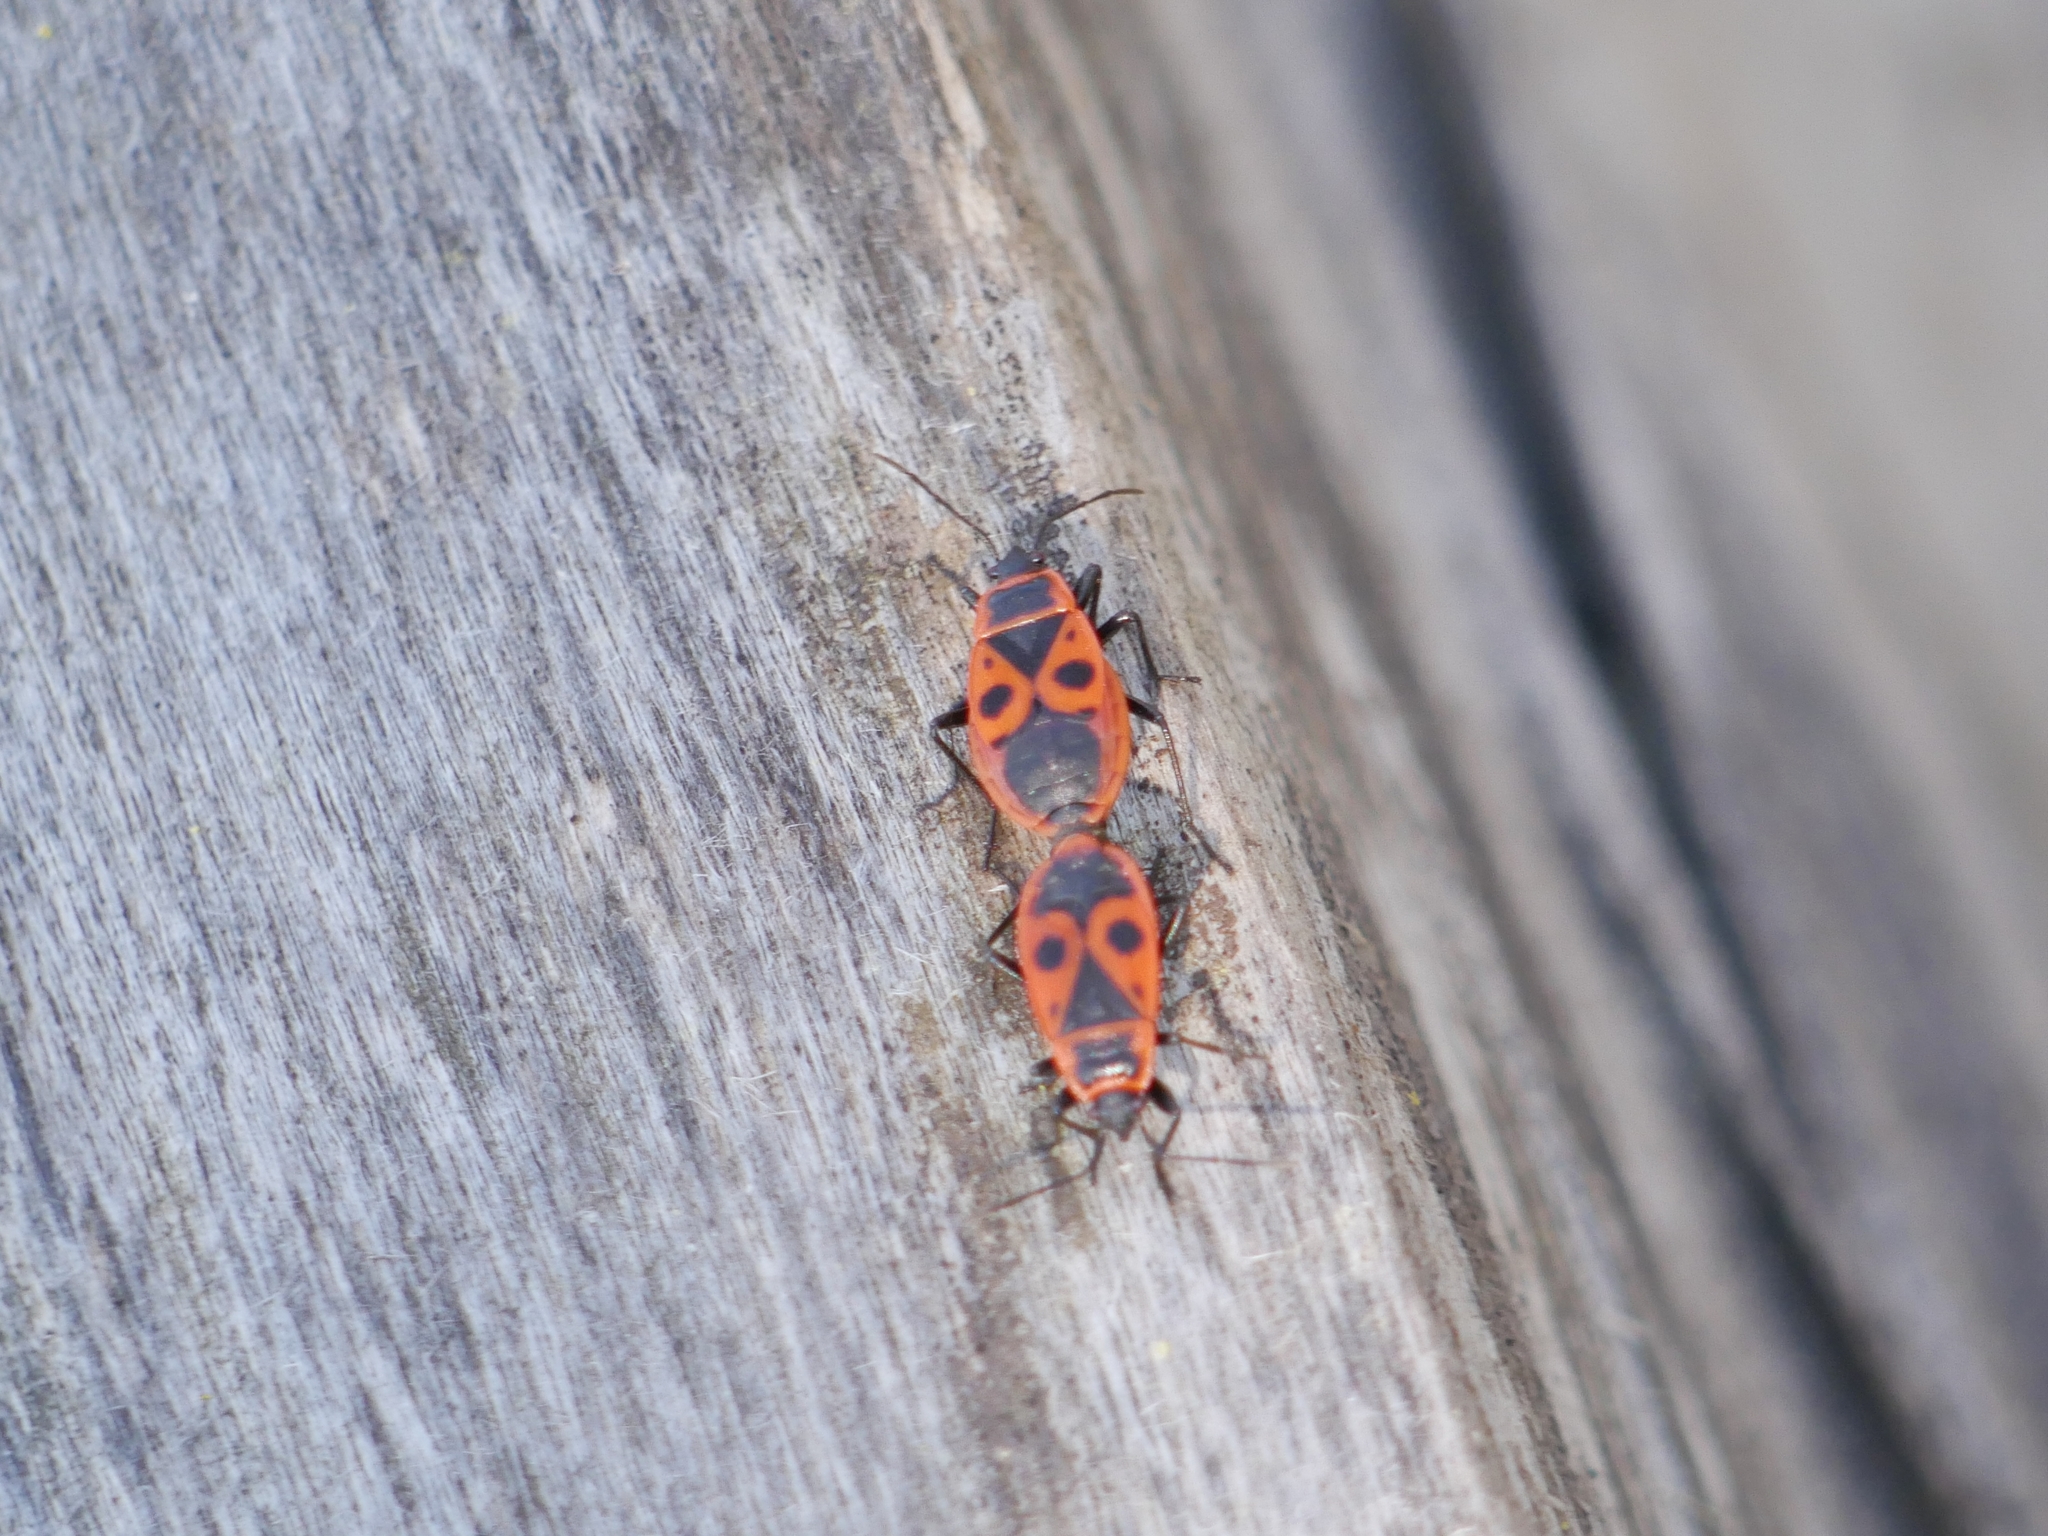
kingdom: Animalia
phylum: Arthropoda
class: Insecta
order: Hemiptera
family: Pyrrhocoridae
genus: Pyrrhocoris
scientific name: Pyrrhocoris apterus
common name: Firebug
